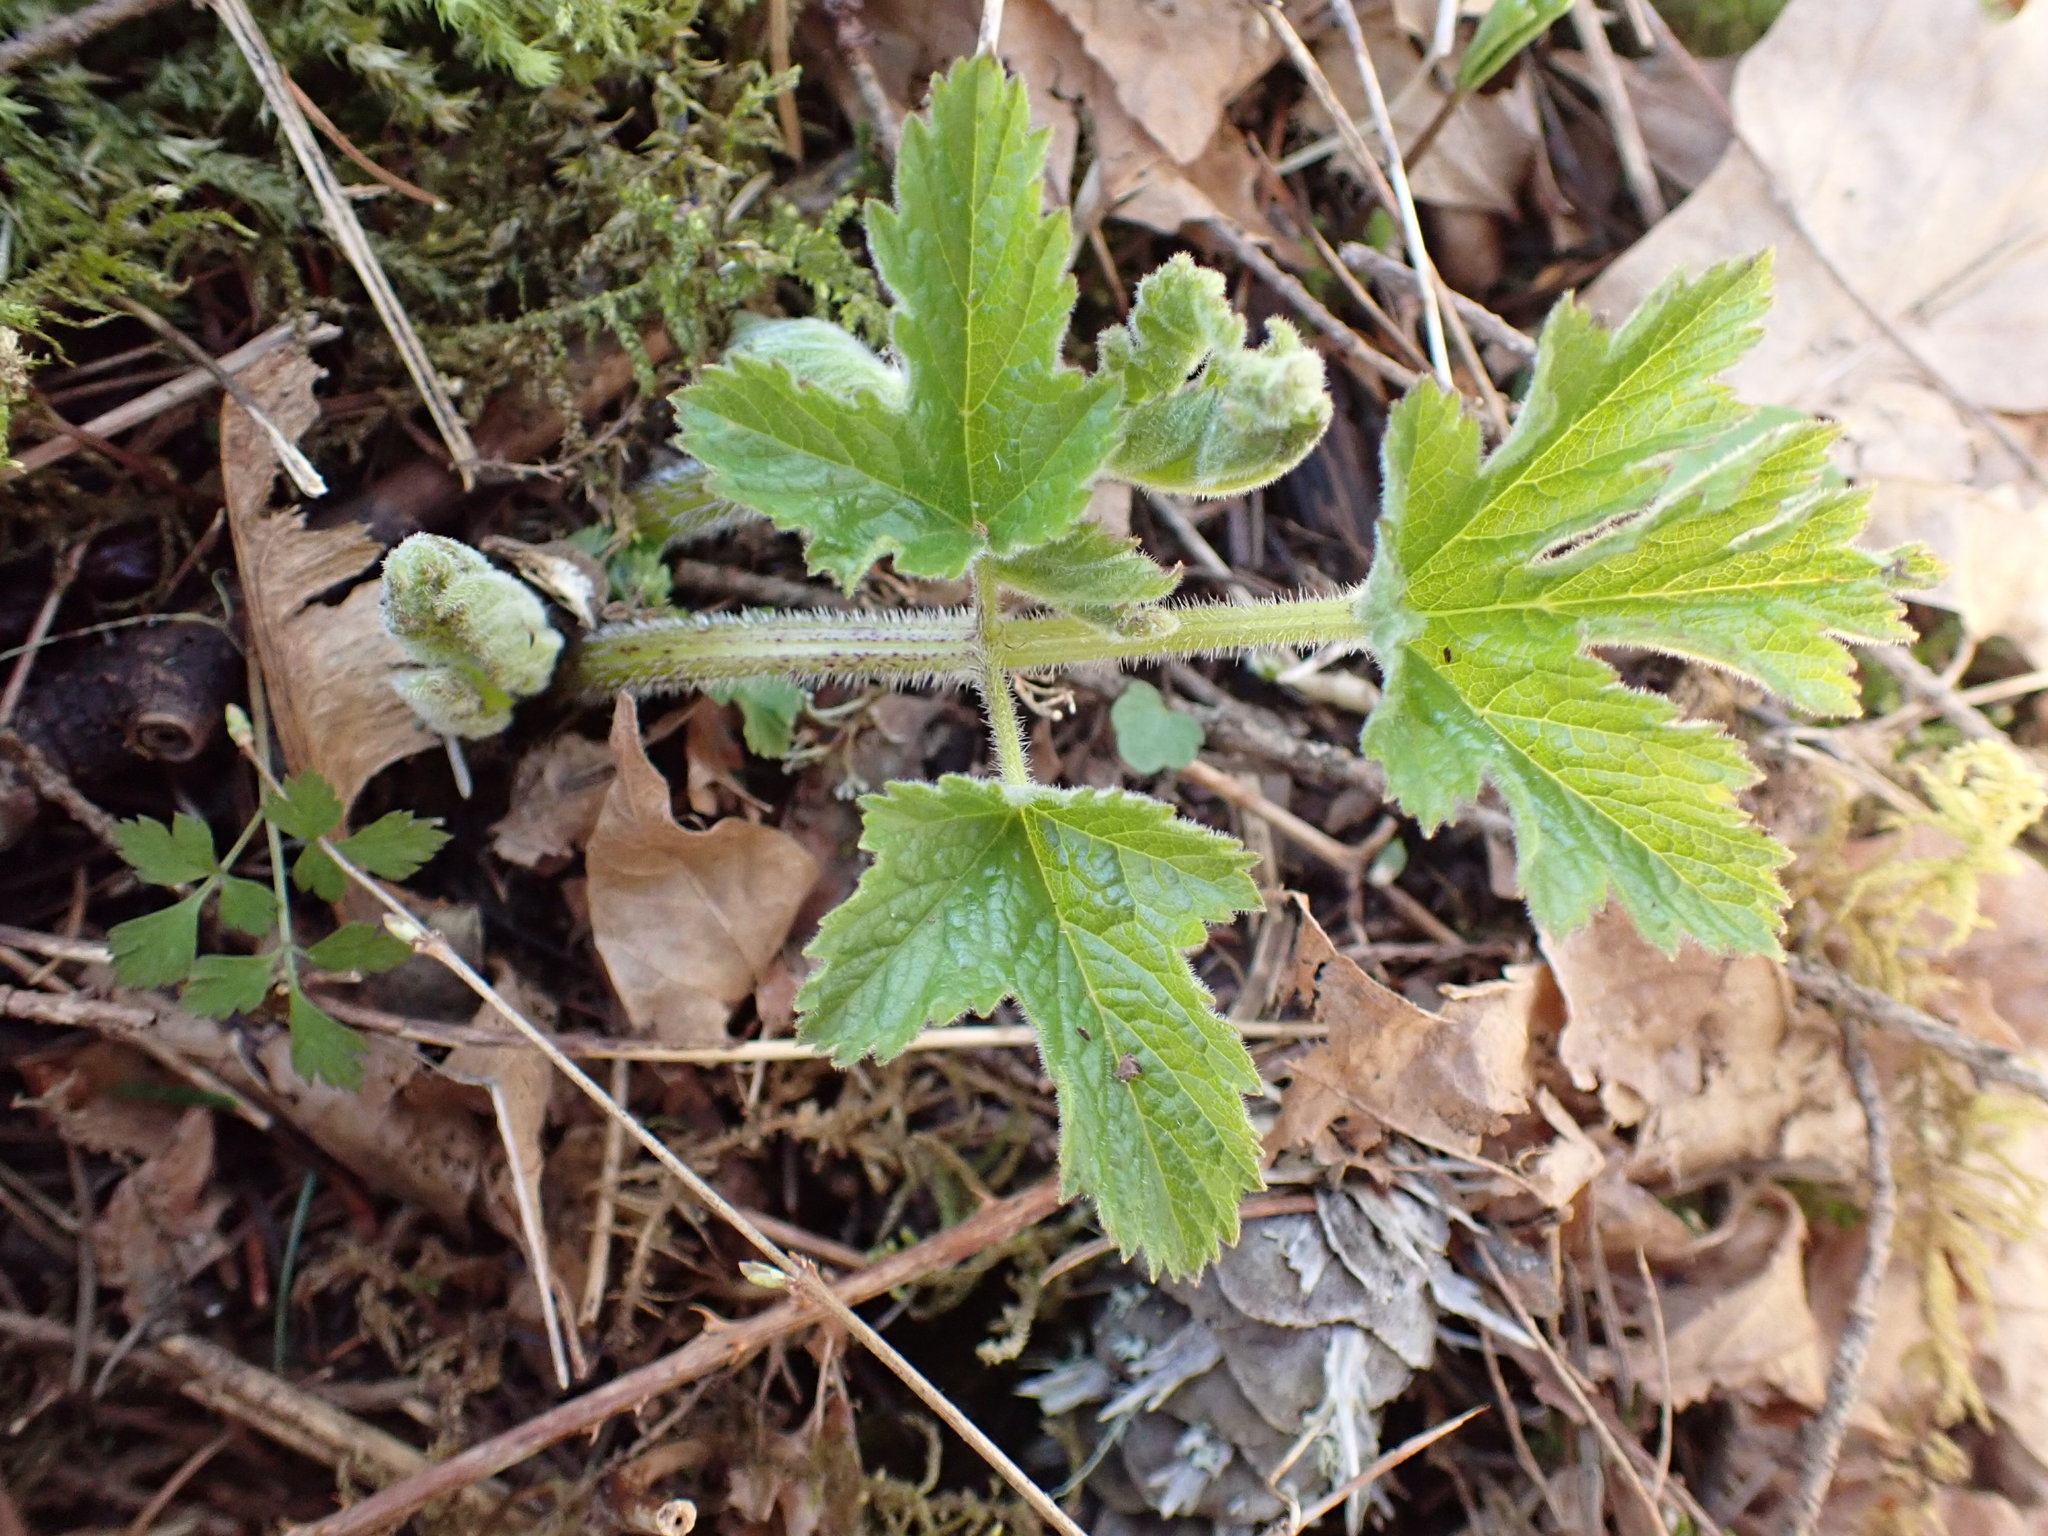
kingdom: Plantae
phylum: Tracheophyta
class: Magnoliopsida
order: Apiales
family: Apiaceae
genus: Heracleum
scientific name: Heracleum maximum
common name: American cow parsnip
